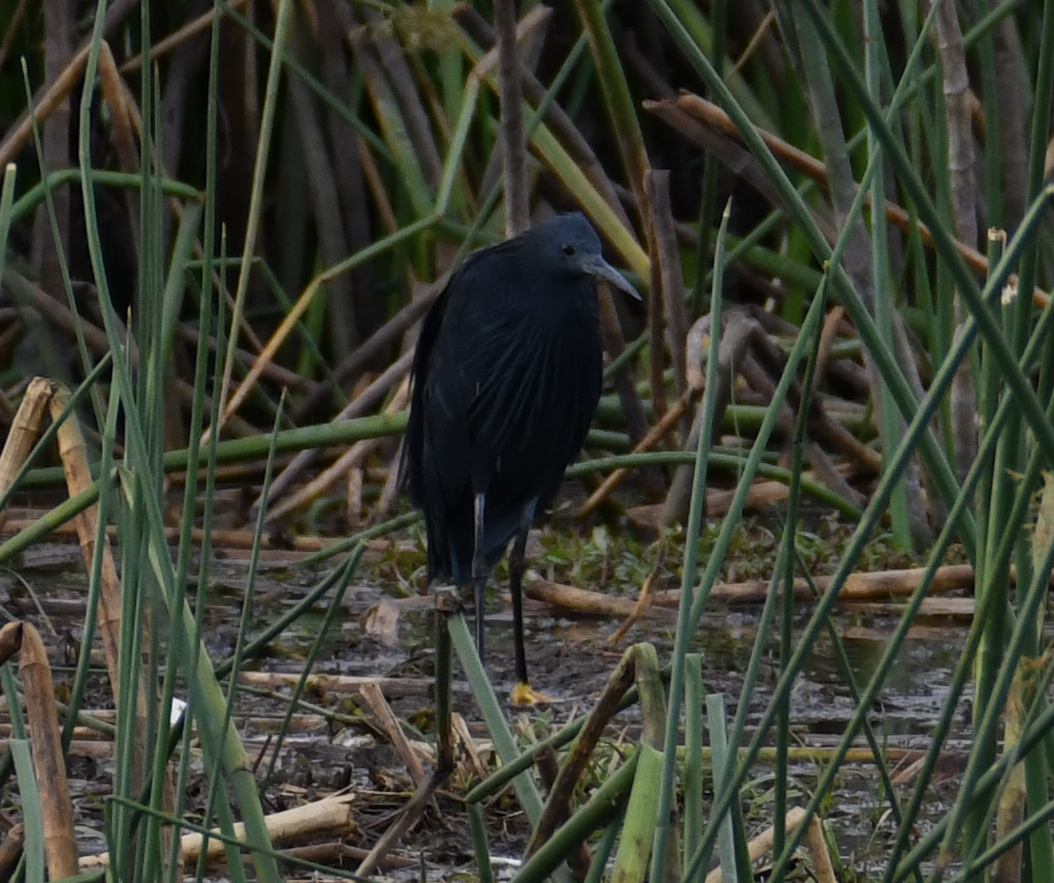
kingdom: Animalia
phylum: Chordata
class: Aves
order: Pelecaniformes
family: Ardeidae
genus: Egretta
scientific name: Egretta ardesiaca
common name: Black heron
